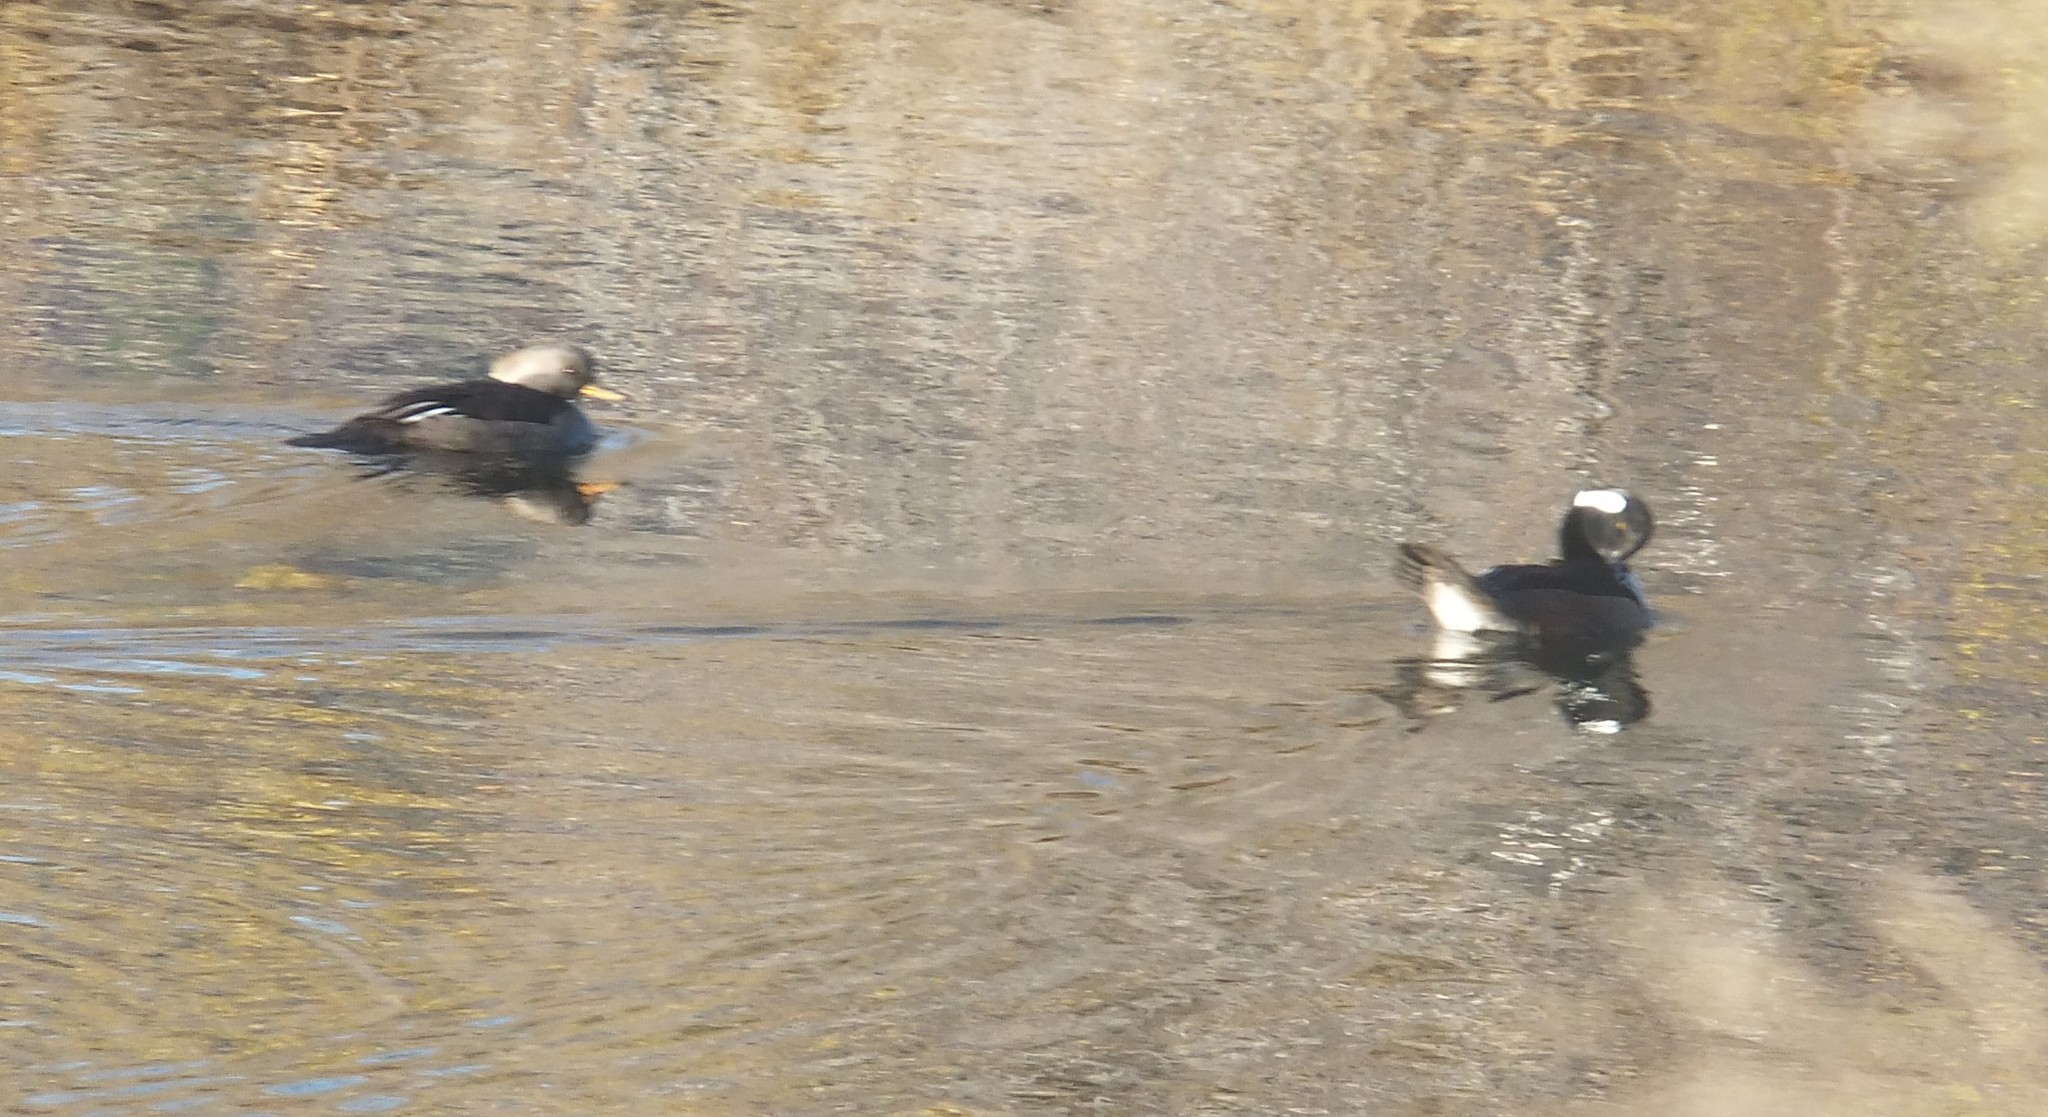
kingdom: Animalia
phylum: Chordata
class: Aves
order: Anseriformes
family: Anatidae
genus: Lophodytes
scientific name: Lophodytes cucullatus
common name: Hooded merganser
